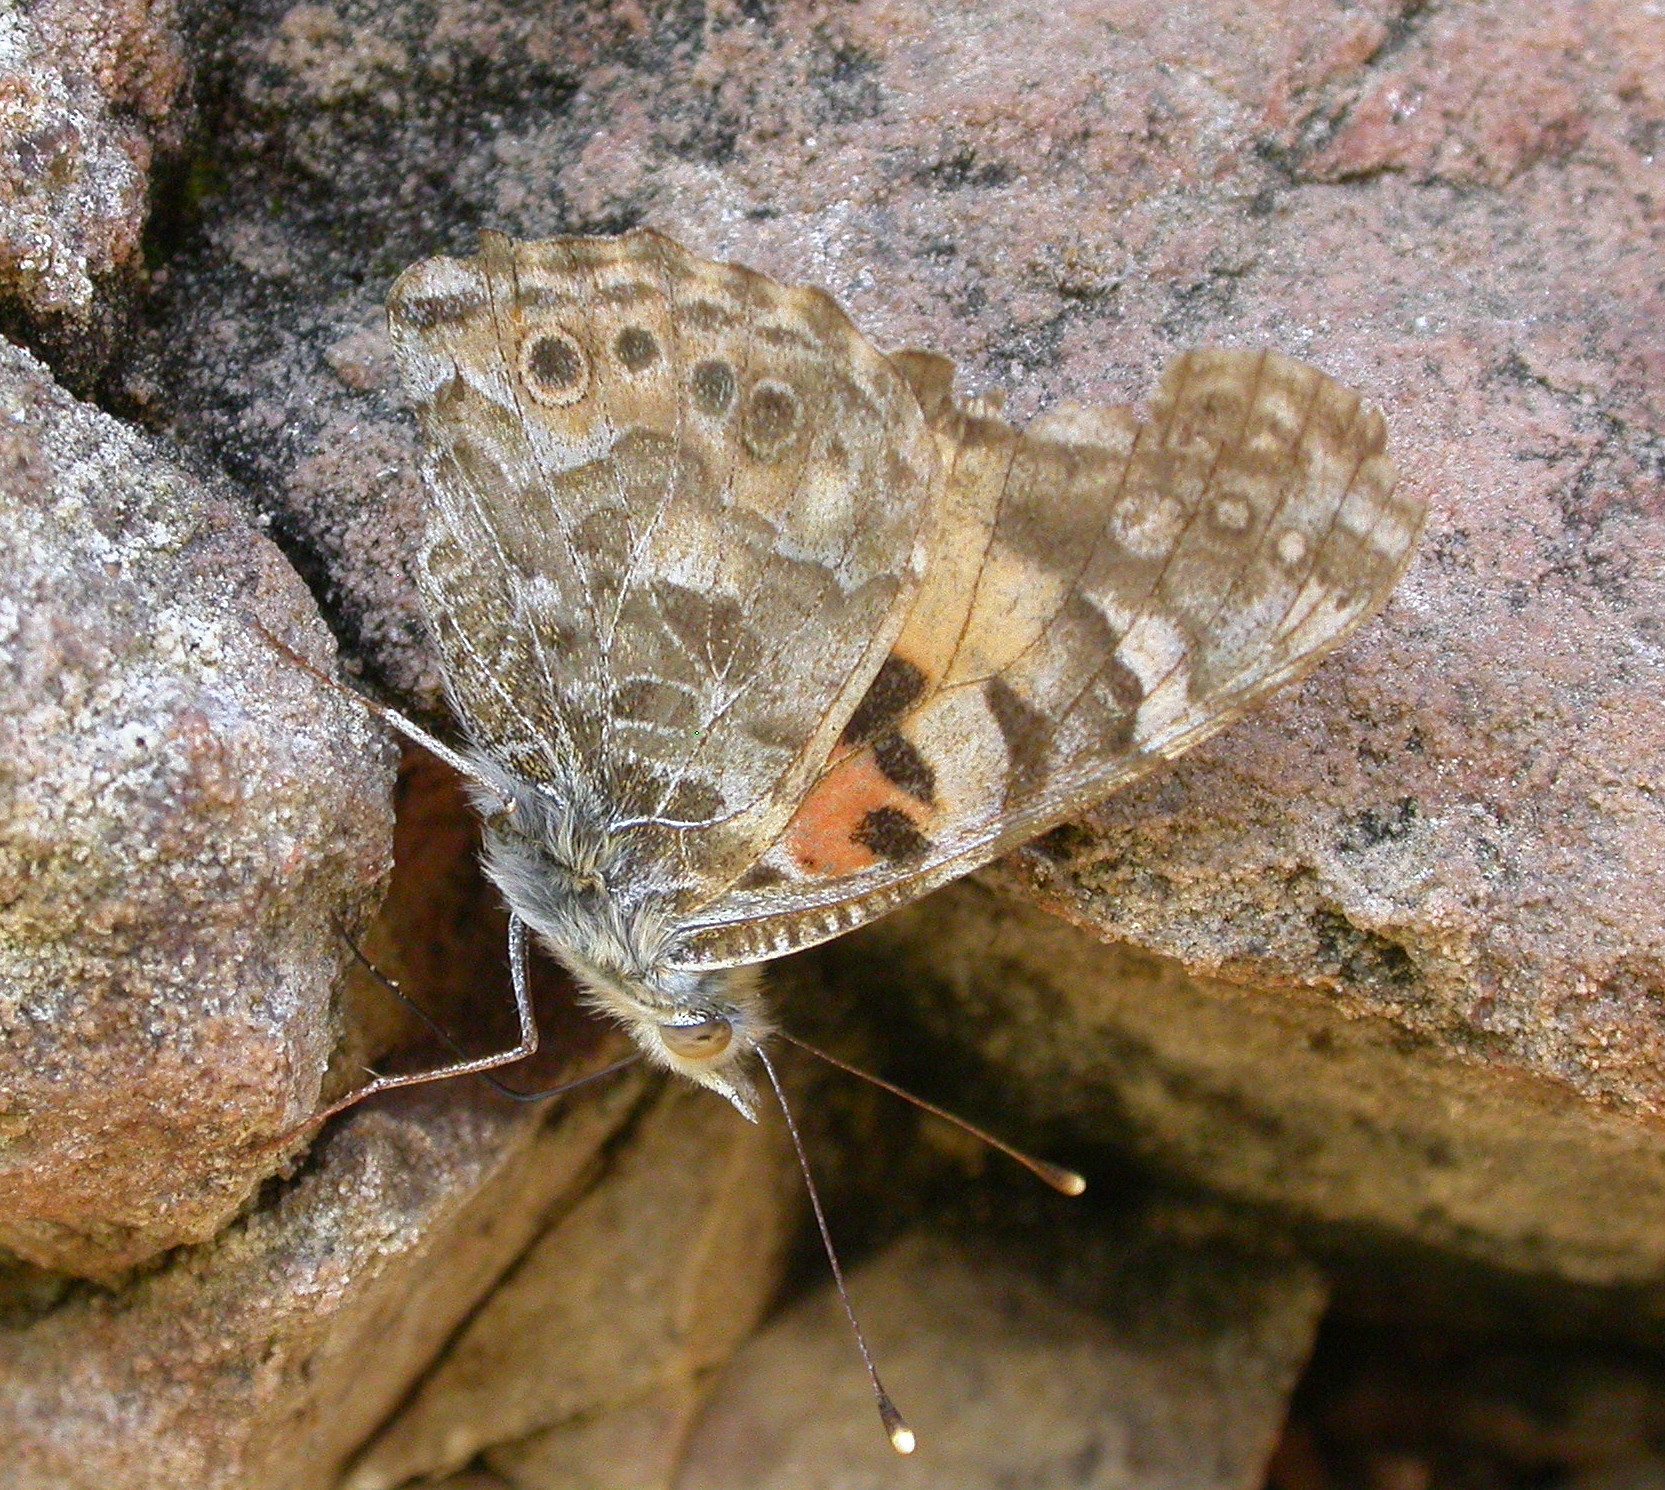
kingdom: Animalia
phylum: Arthropoda
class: Insecta
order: Lepidoptera
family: Nymphalidae
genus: Vanessa
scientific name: Vanessa cardui
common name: Painted lady
